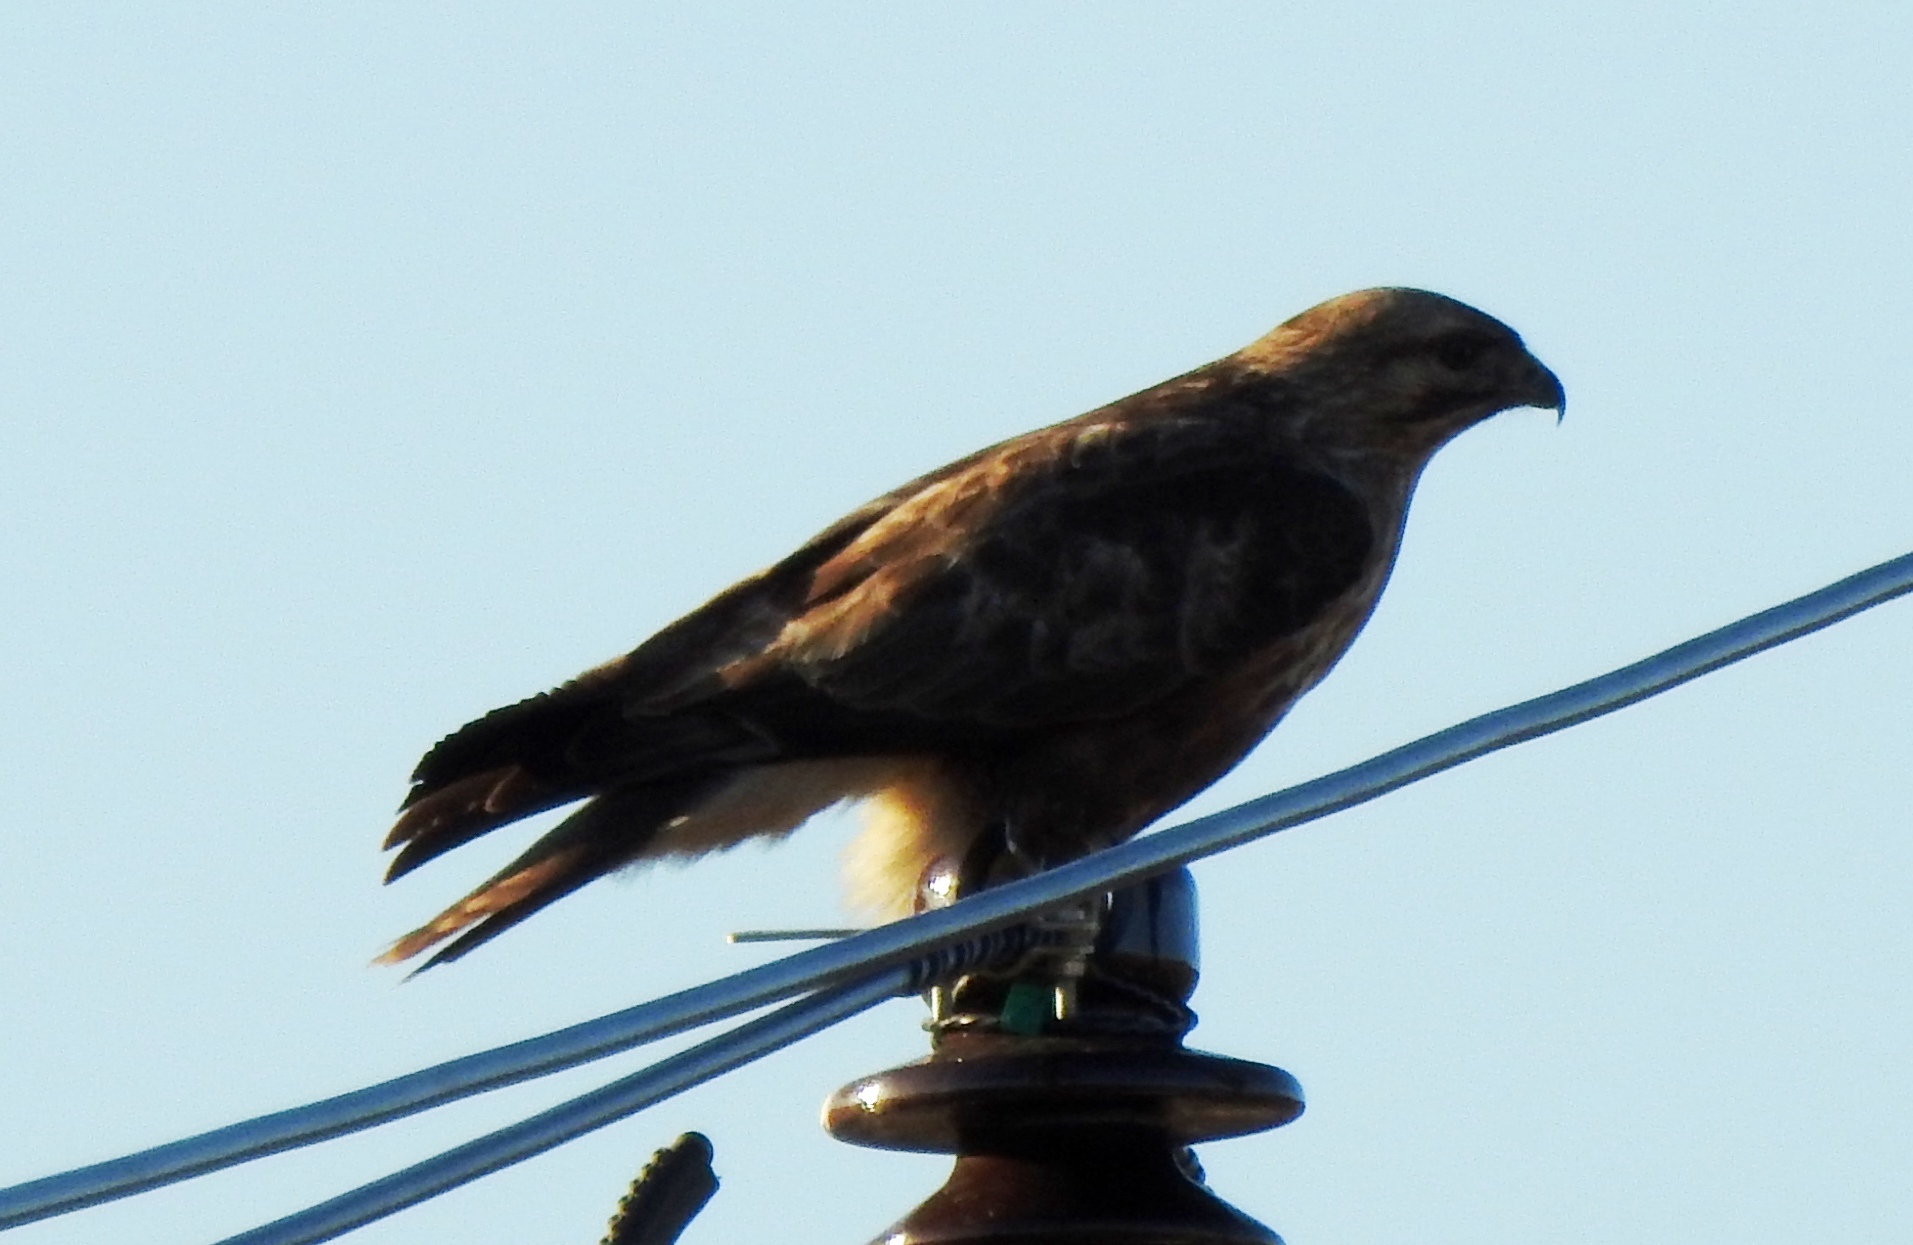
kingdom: Animalia
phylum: Chordata
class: Aves
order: Accipitriformes
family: Accipitridae
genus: Buteo
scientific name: Buteo japonicus
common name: Eastern buzzard
